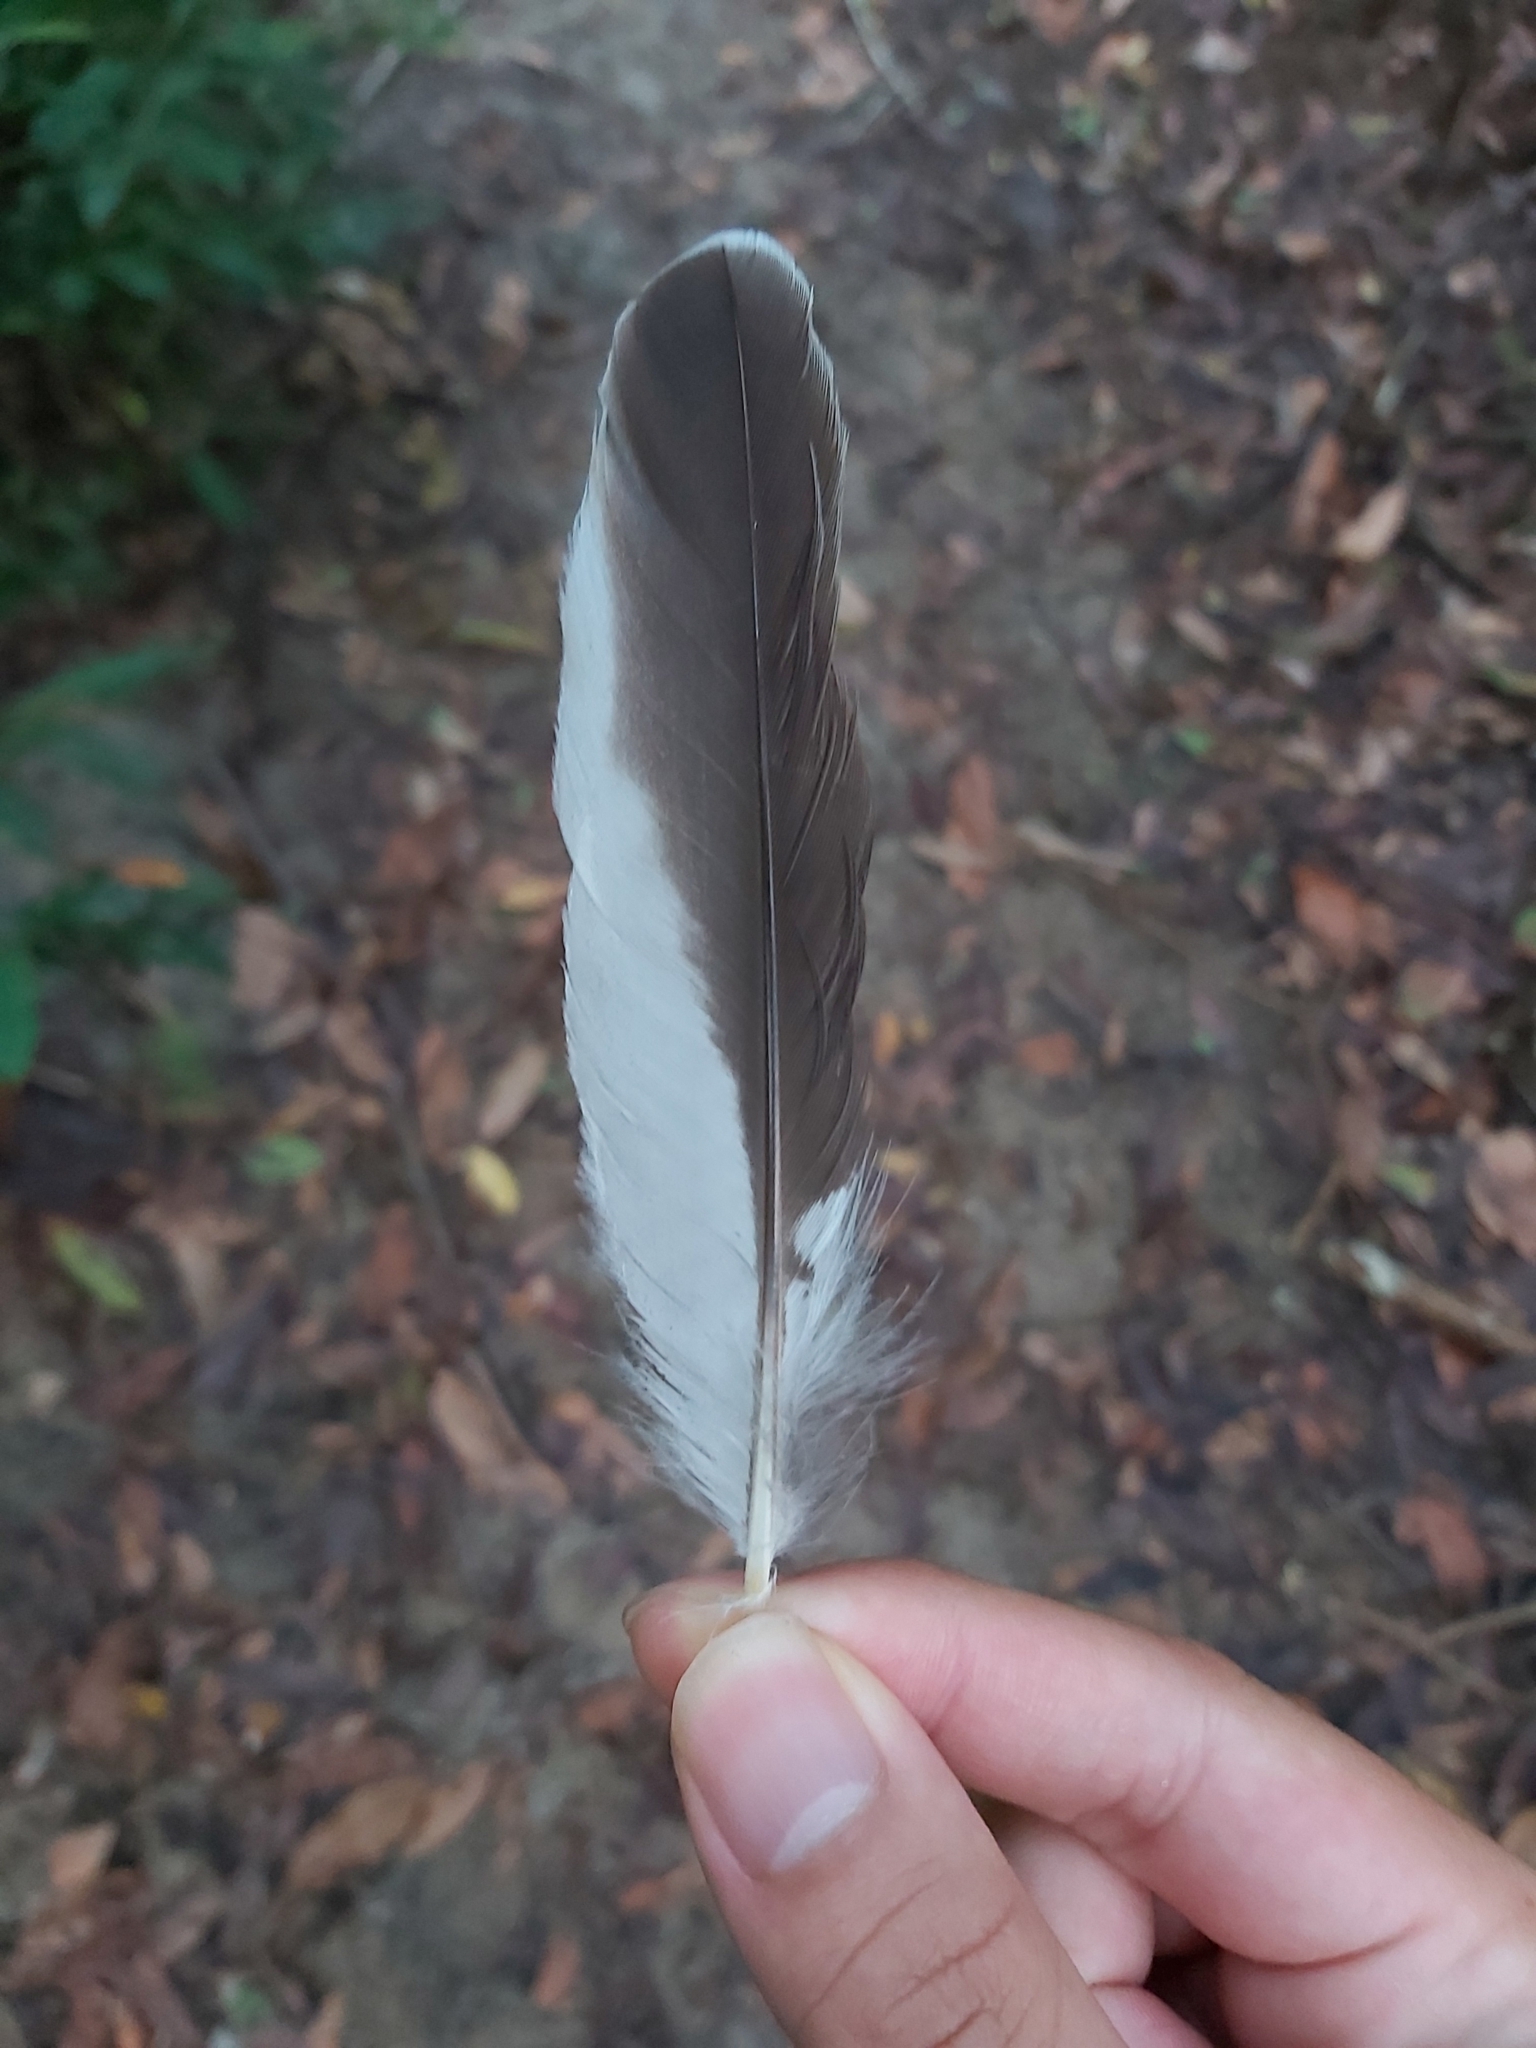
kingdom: Animalia
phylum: Chordata
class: Aves
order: Coraciiformes
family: Alcedinidae
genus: Dacelo
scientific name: Dacelo novaeguineae
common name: Laughing kookaburra
